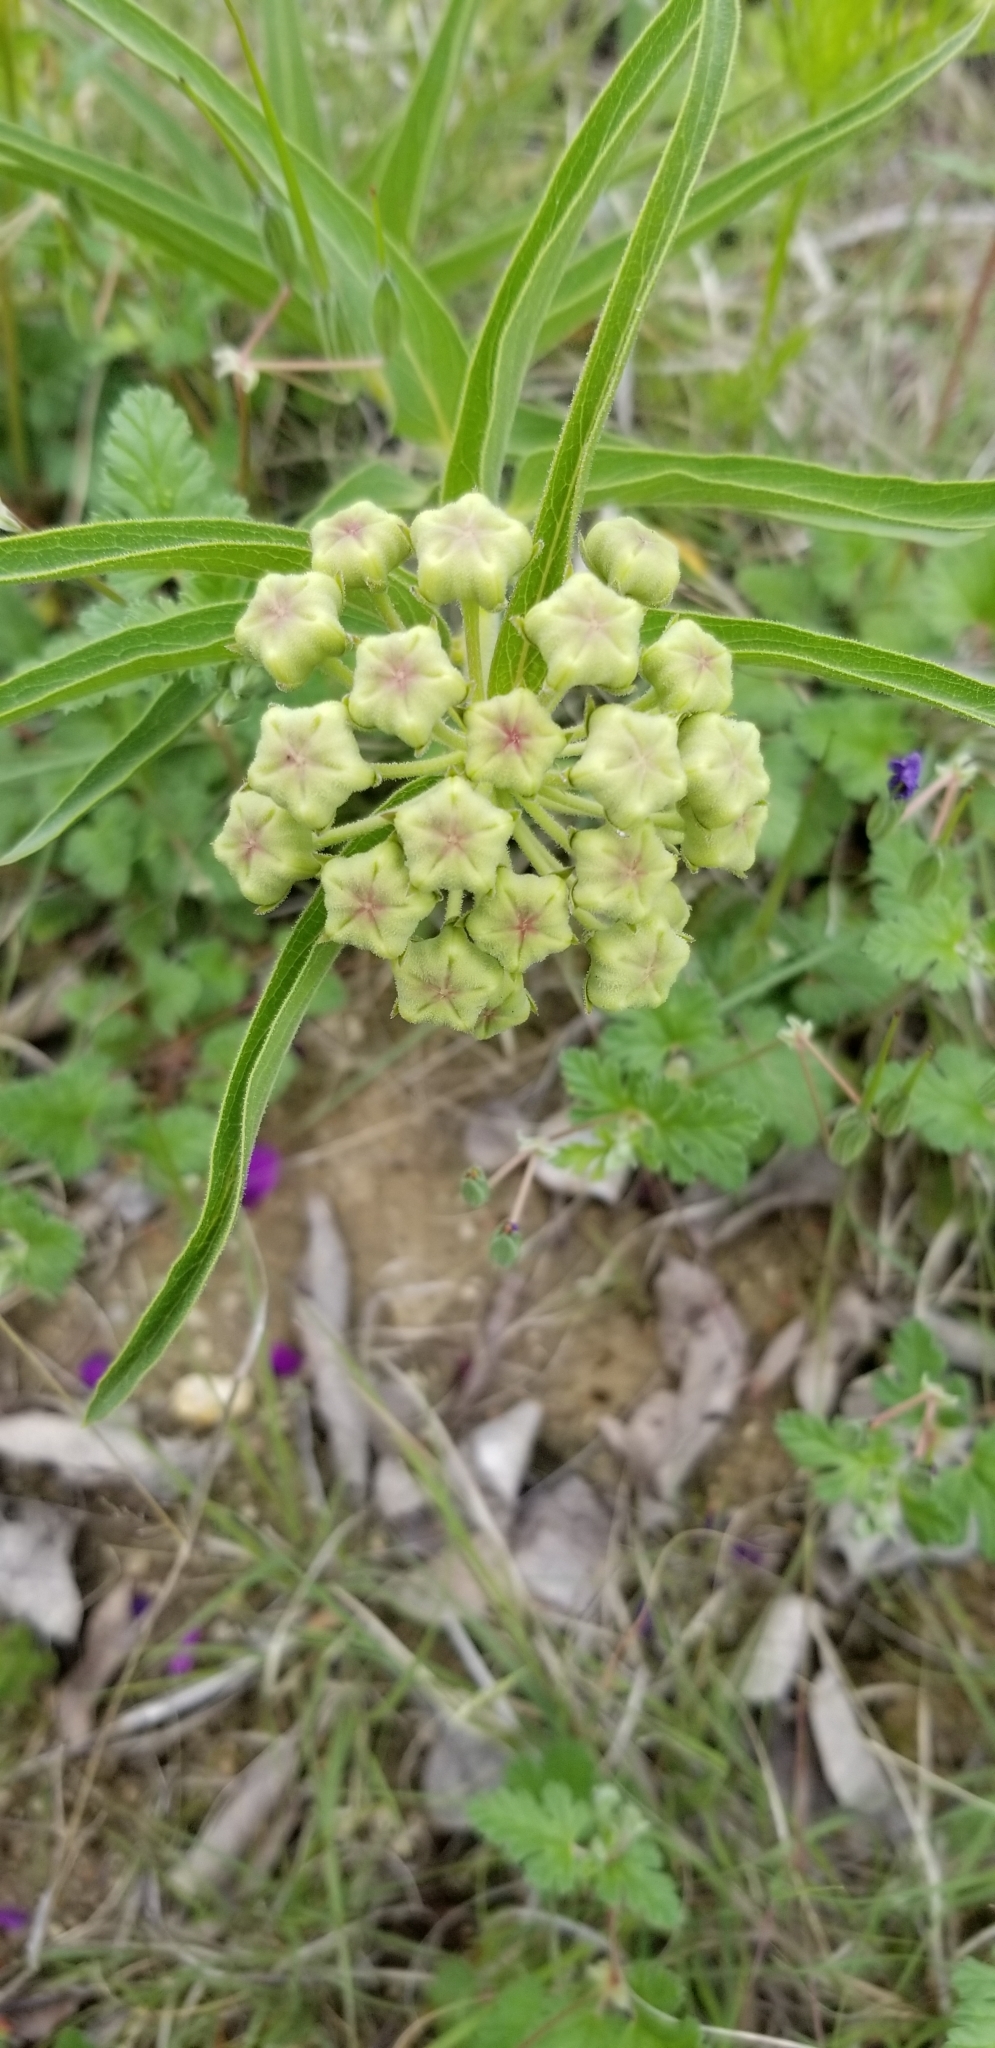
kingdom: Plantae
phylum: Tracheophyta
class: Magnoliopsida
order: Gentianales
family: Apocynaceae
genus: Asclepias
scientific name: Asclepias asperula
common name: Antelope horns
